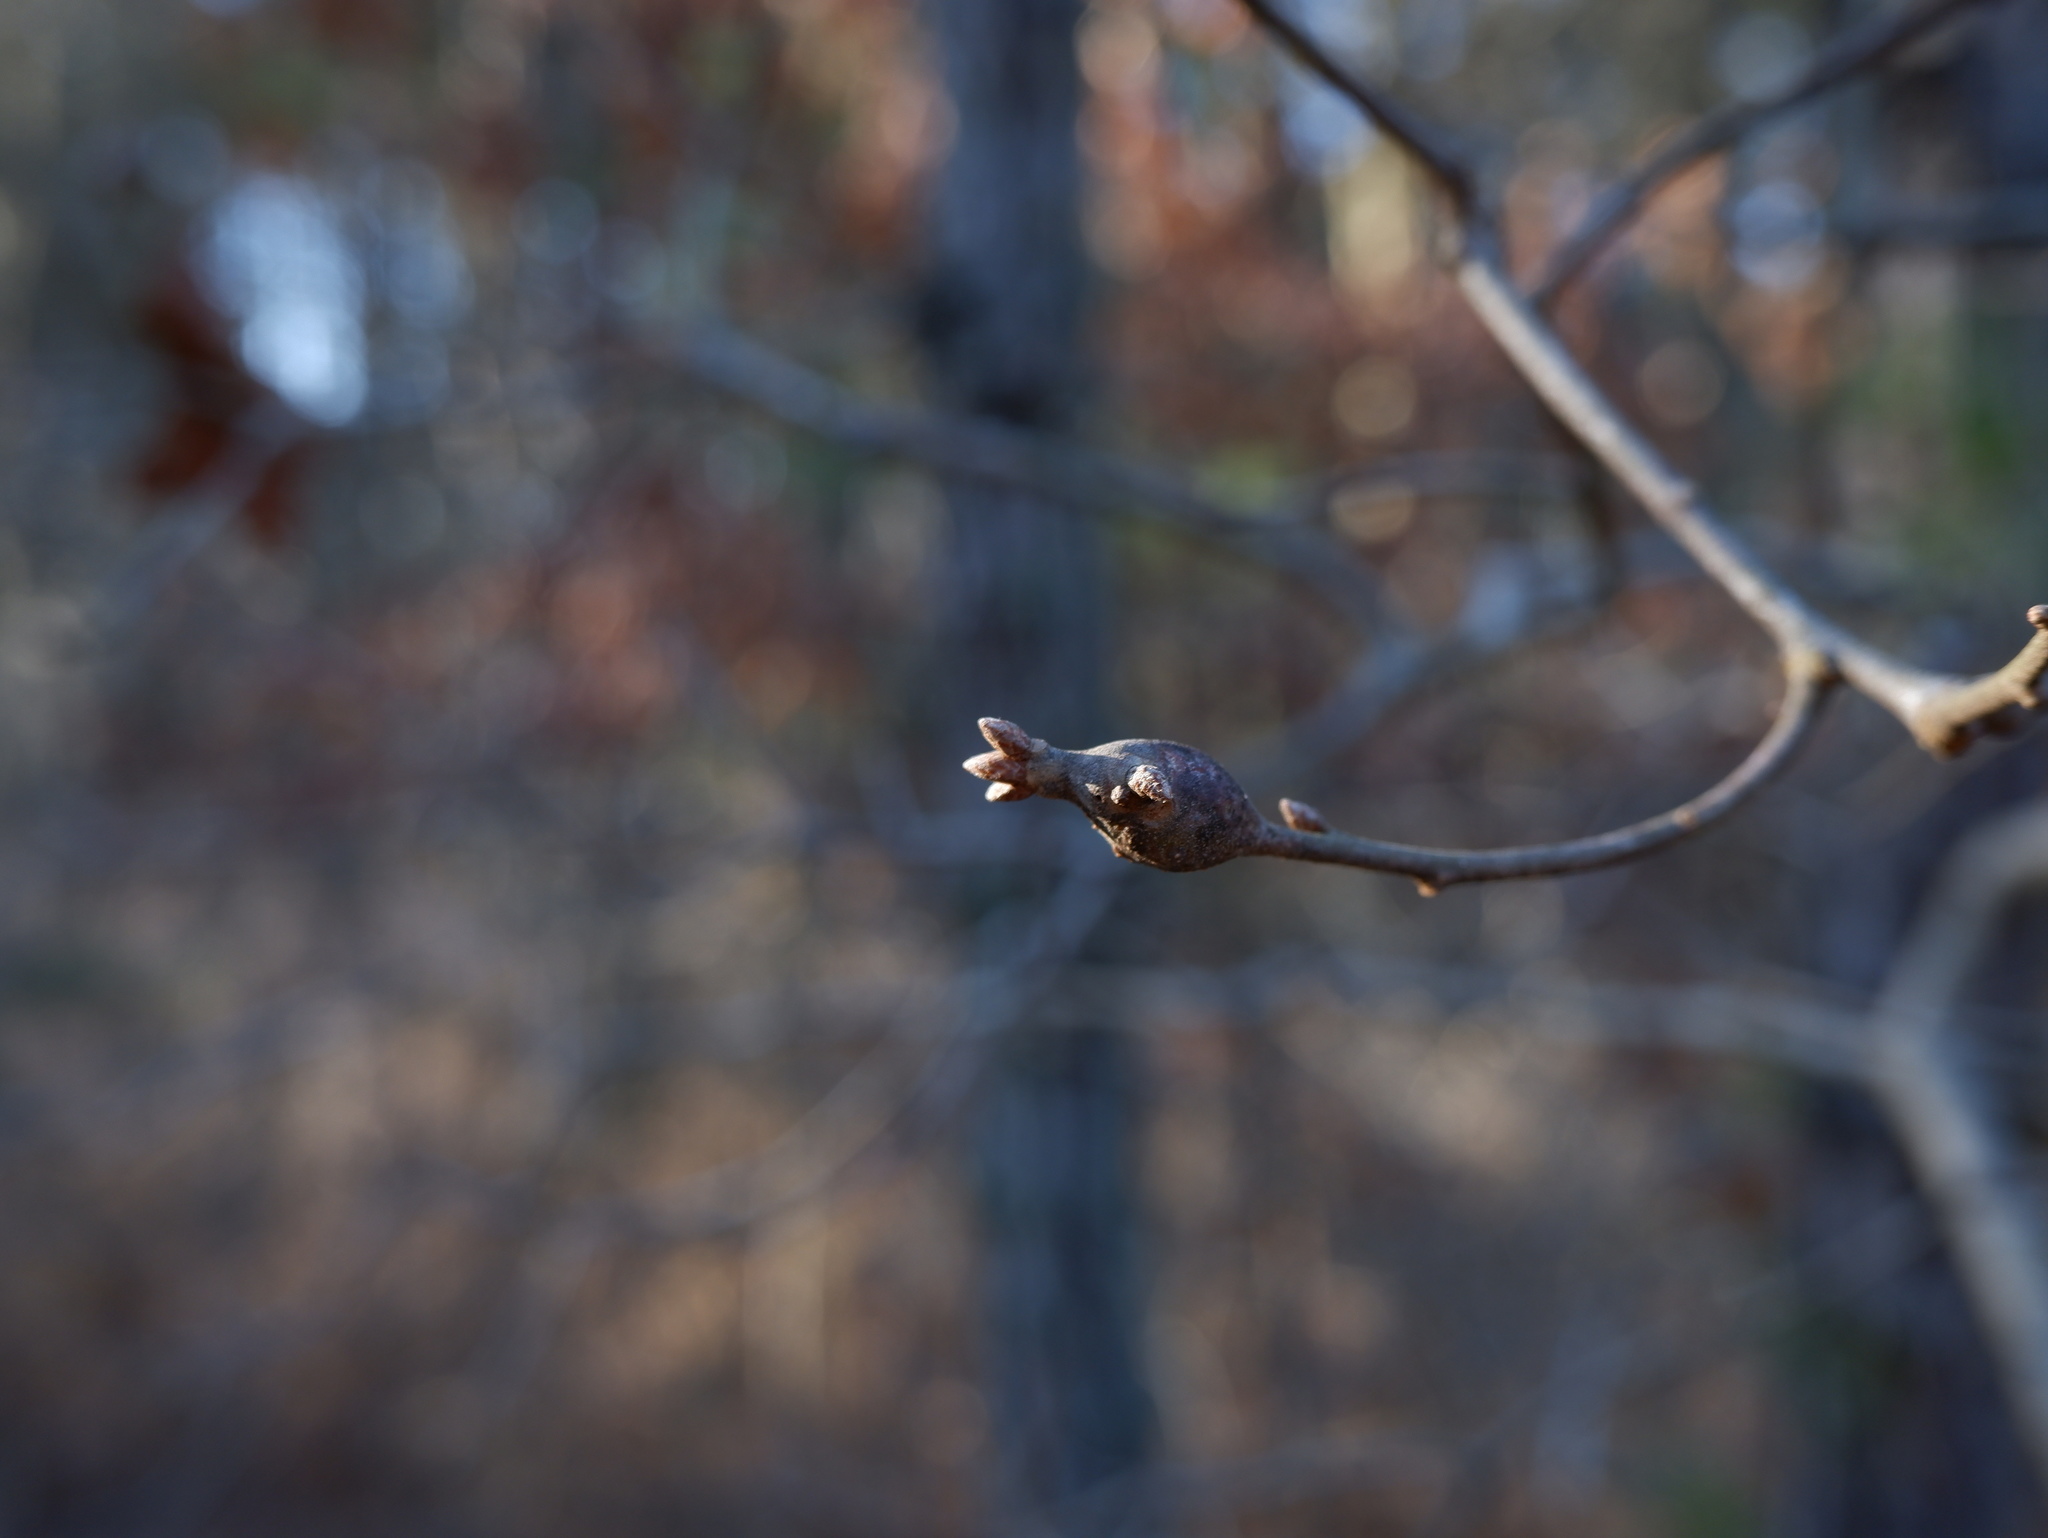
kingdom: Animalia
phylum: Arthropoda
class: Insecta
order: Hymenoptera
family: Cynipidae
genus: Zapatella
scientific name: Zapatella quercusphellos
